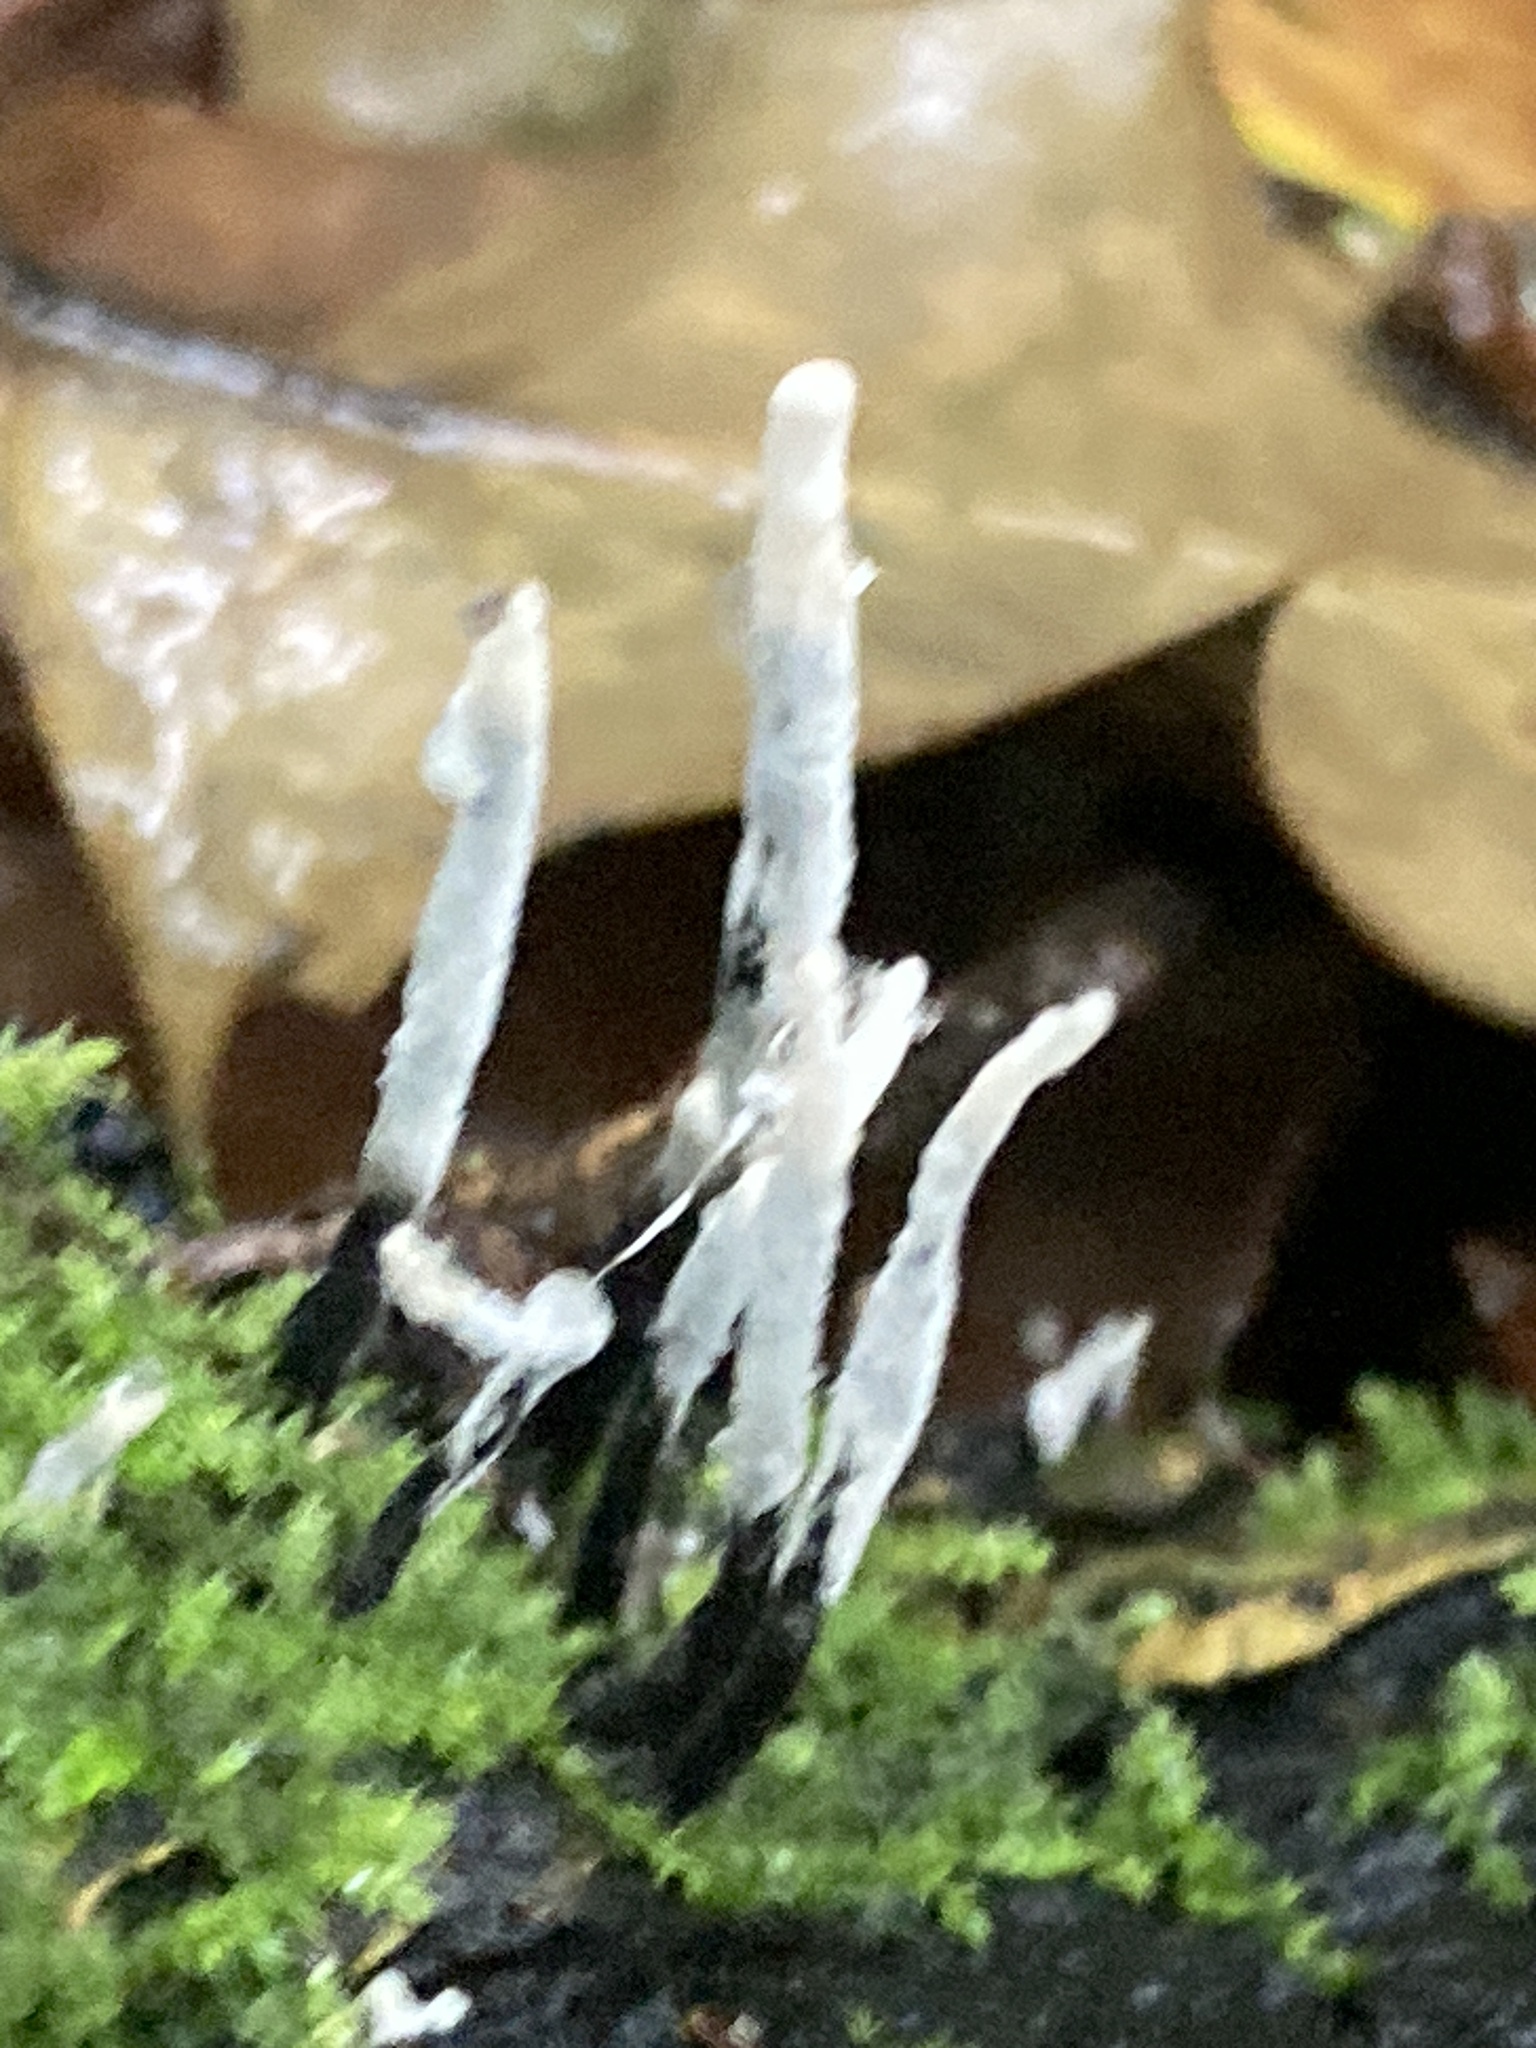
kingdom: Fungi
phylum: Ascomycota
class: Sordariomycetes
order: Xylariales
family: Xylariaceae
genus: Xylaria
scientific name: Xylaria hypoxylon
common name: Candle-snuff fungus
